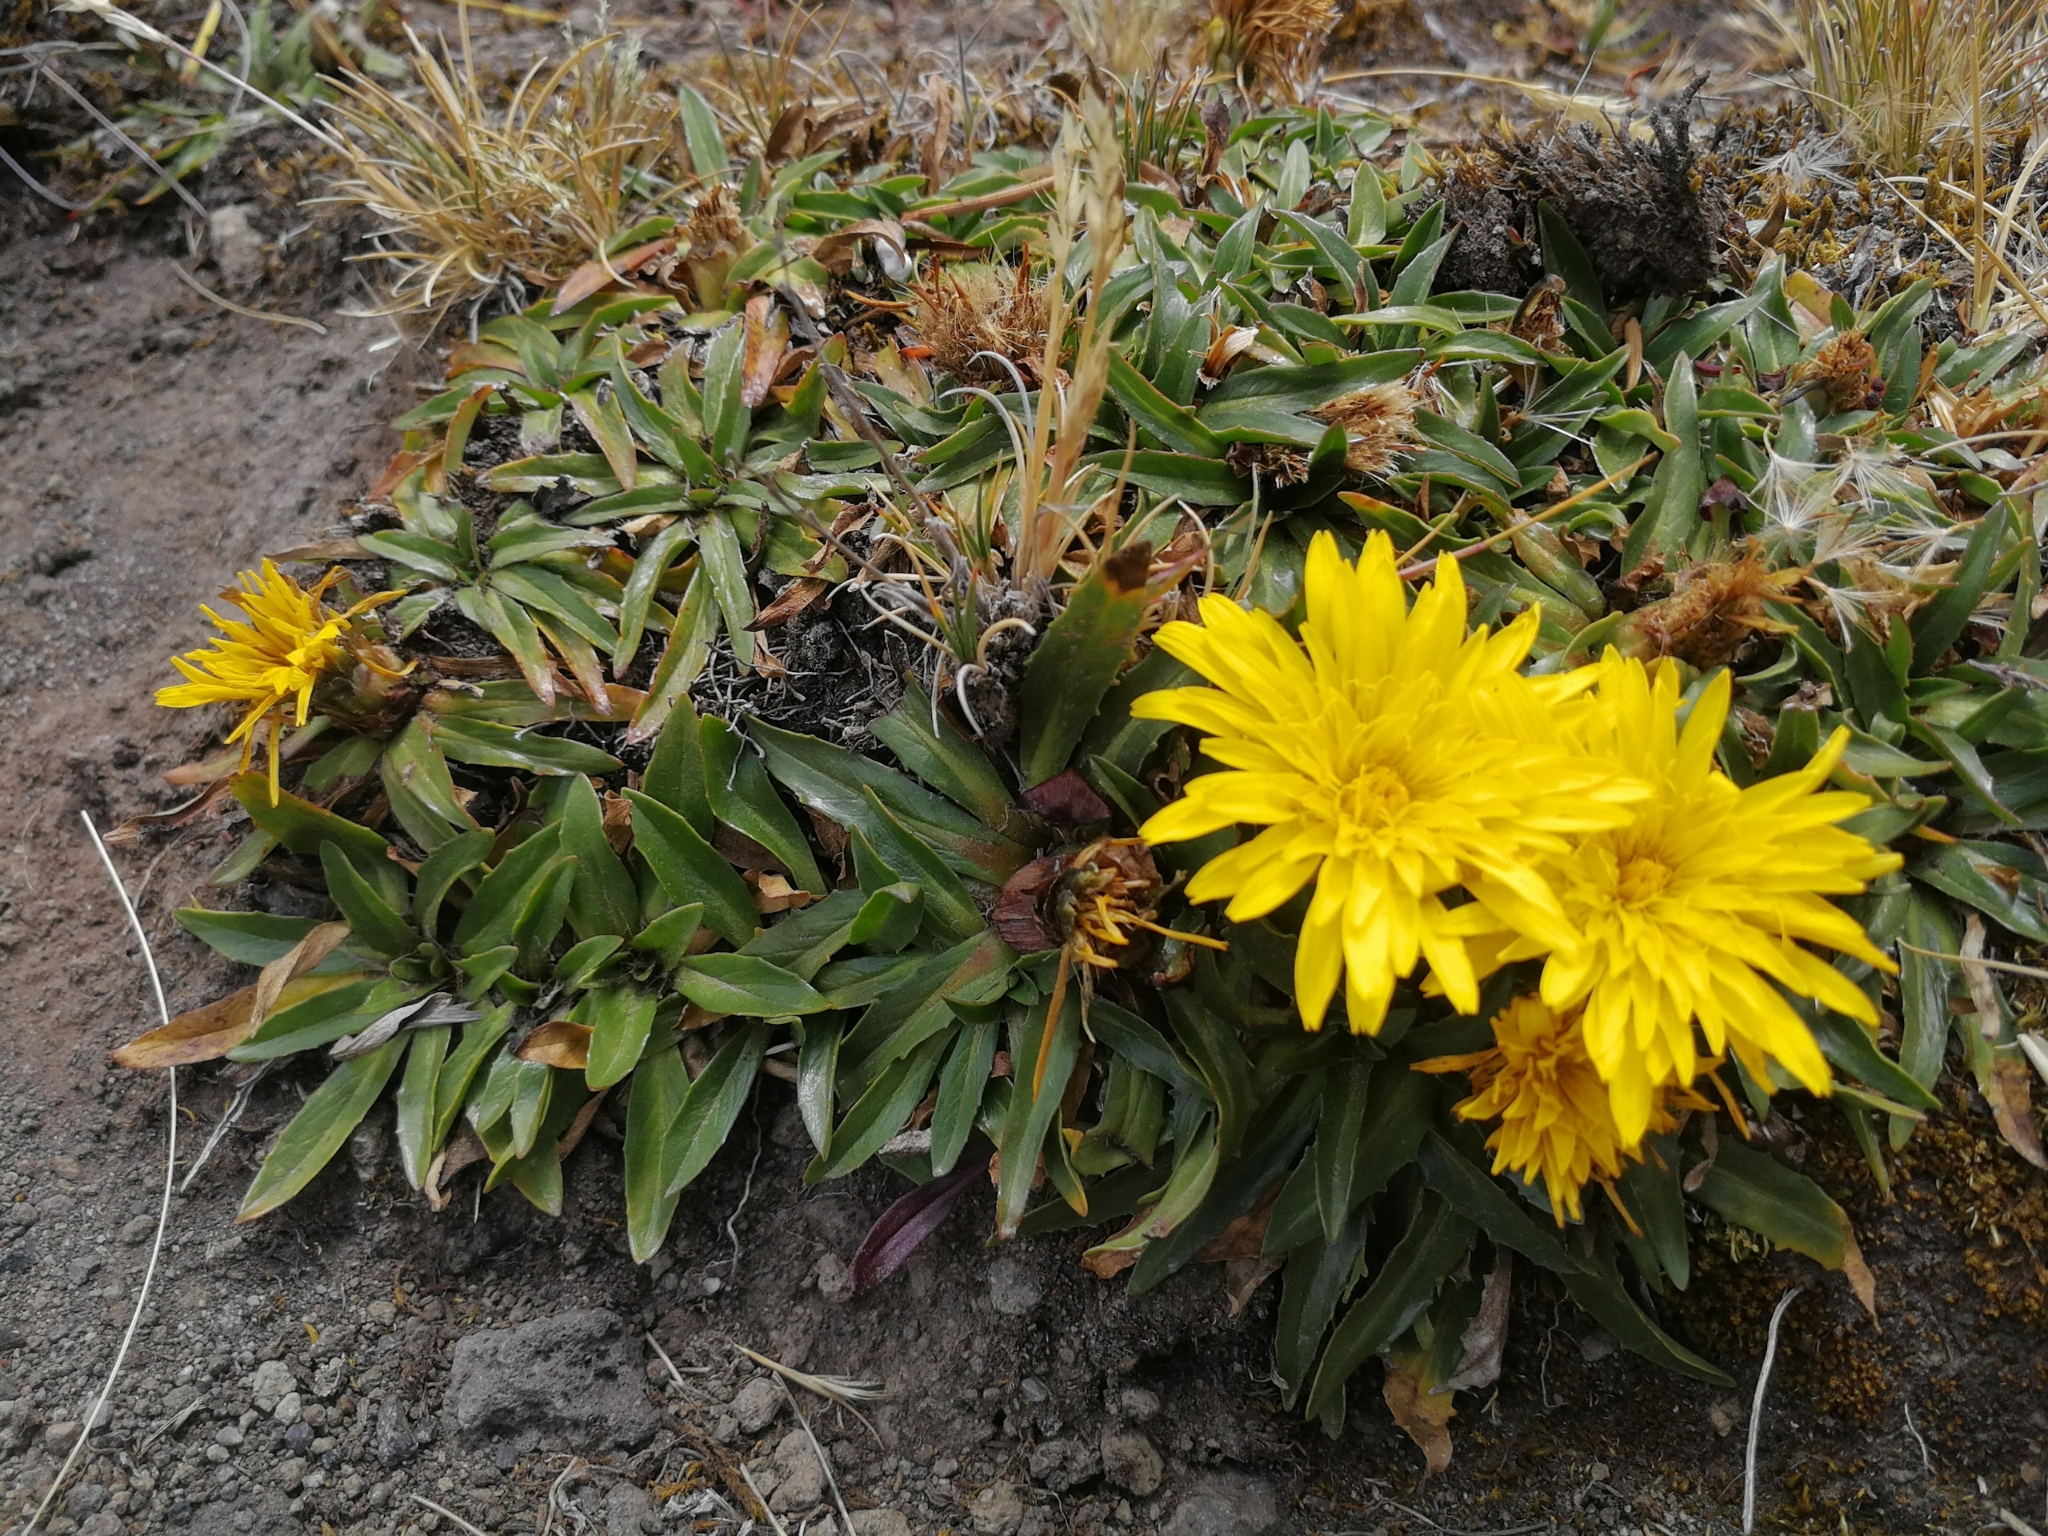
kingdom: Plantae
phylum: Tracheophyta
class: Magnoliopsida
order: Asterales
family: Asteraceae
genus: Hypochaeris
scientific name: Hypochaeris sessiliflora
